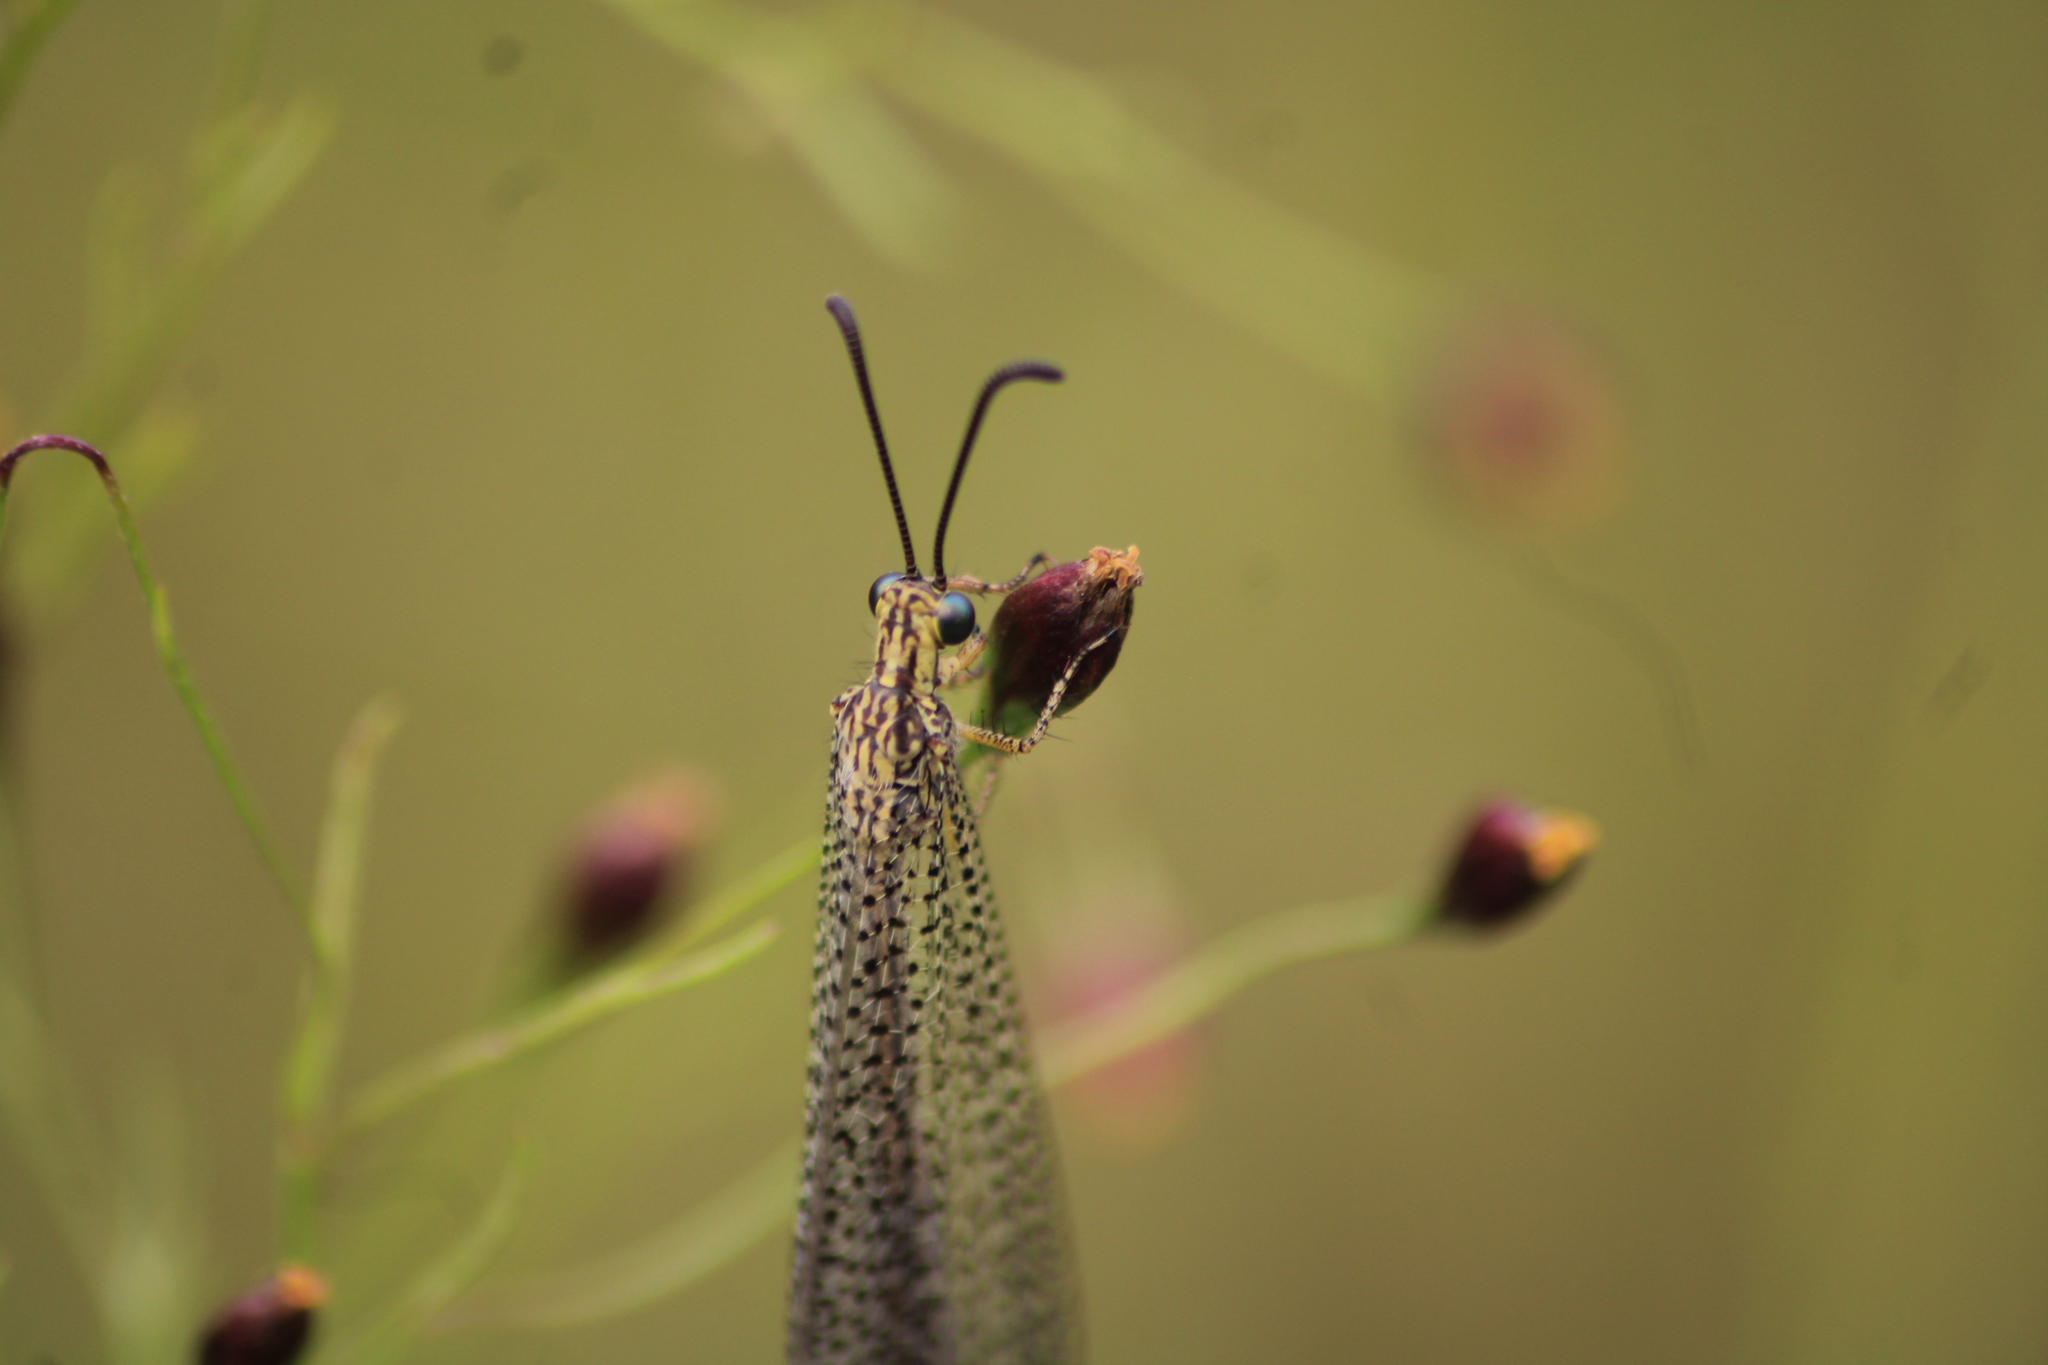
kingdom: Animalia
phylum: Arthropoda
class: Insecta
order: Neuroptera
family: Myrmeleontidae
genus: Brachynemurus
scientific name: Brachynemurus versutus
